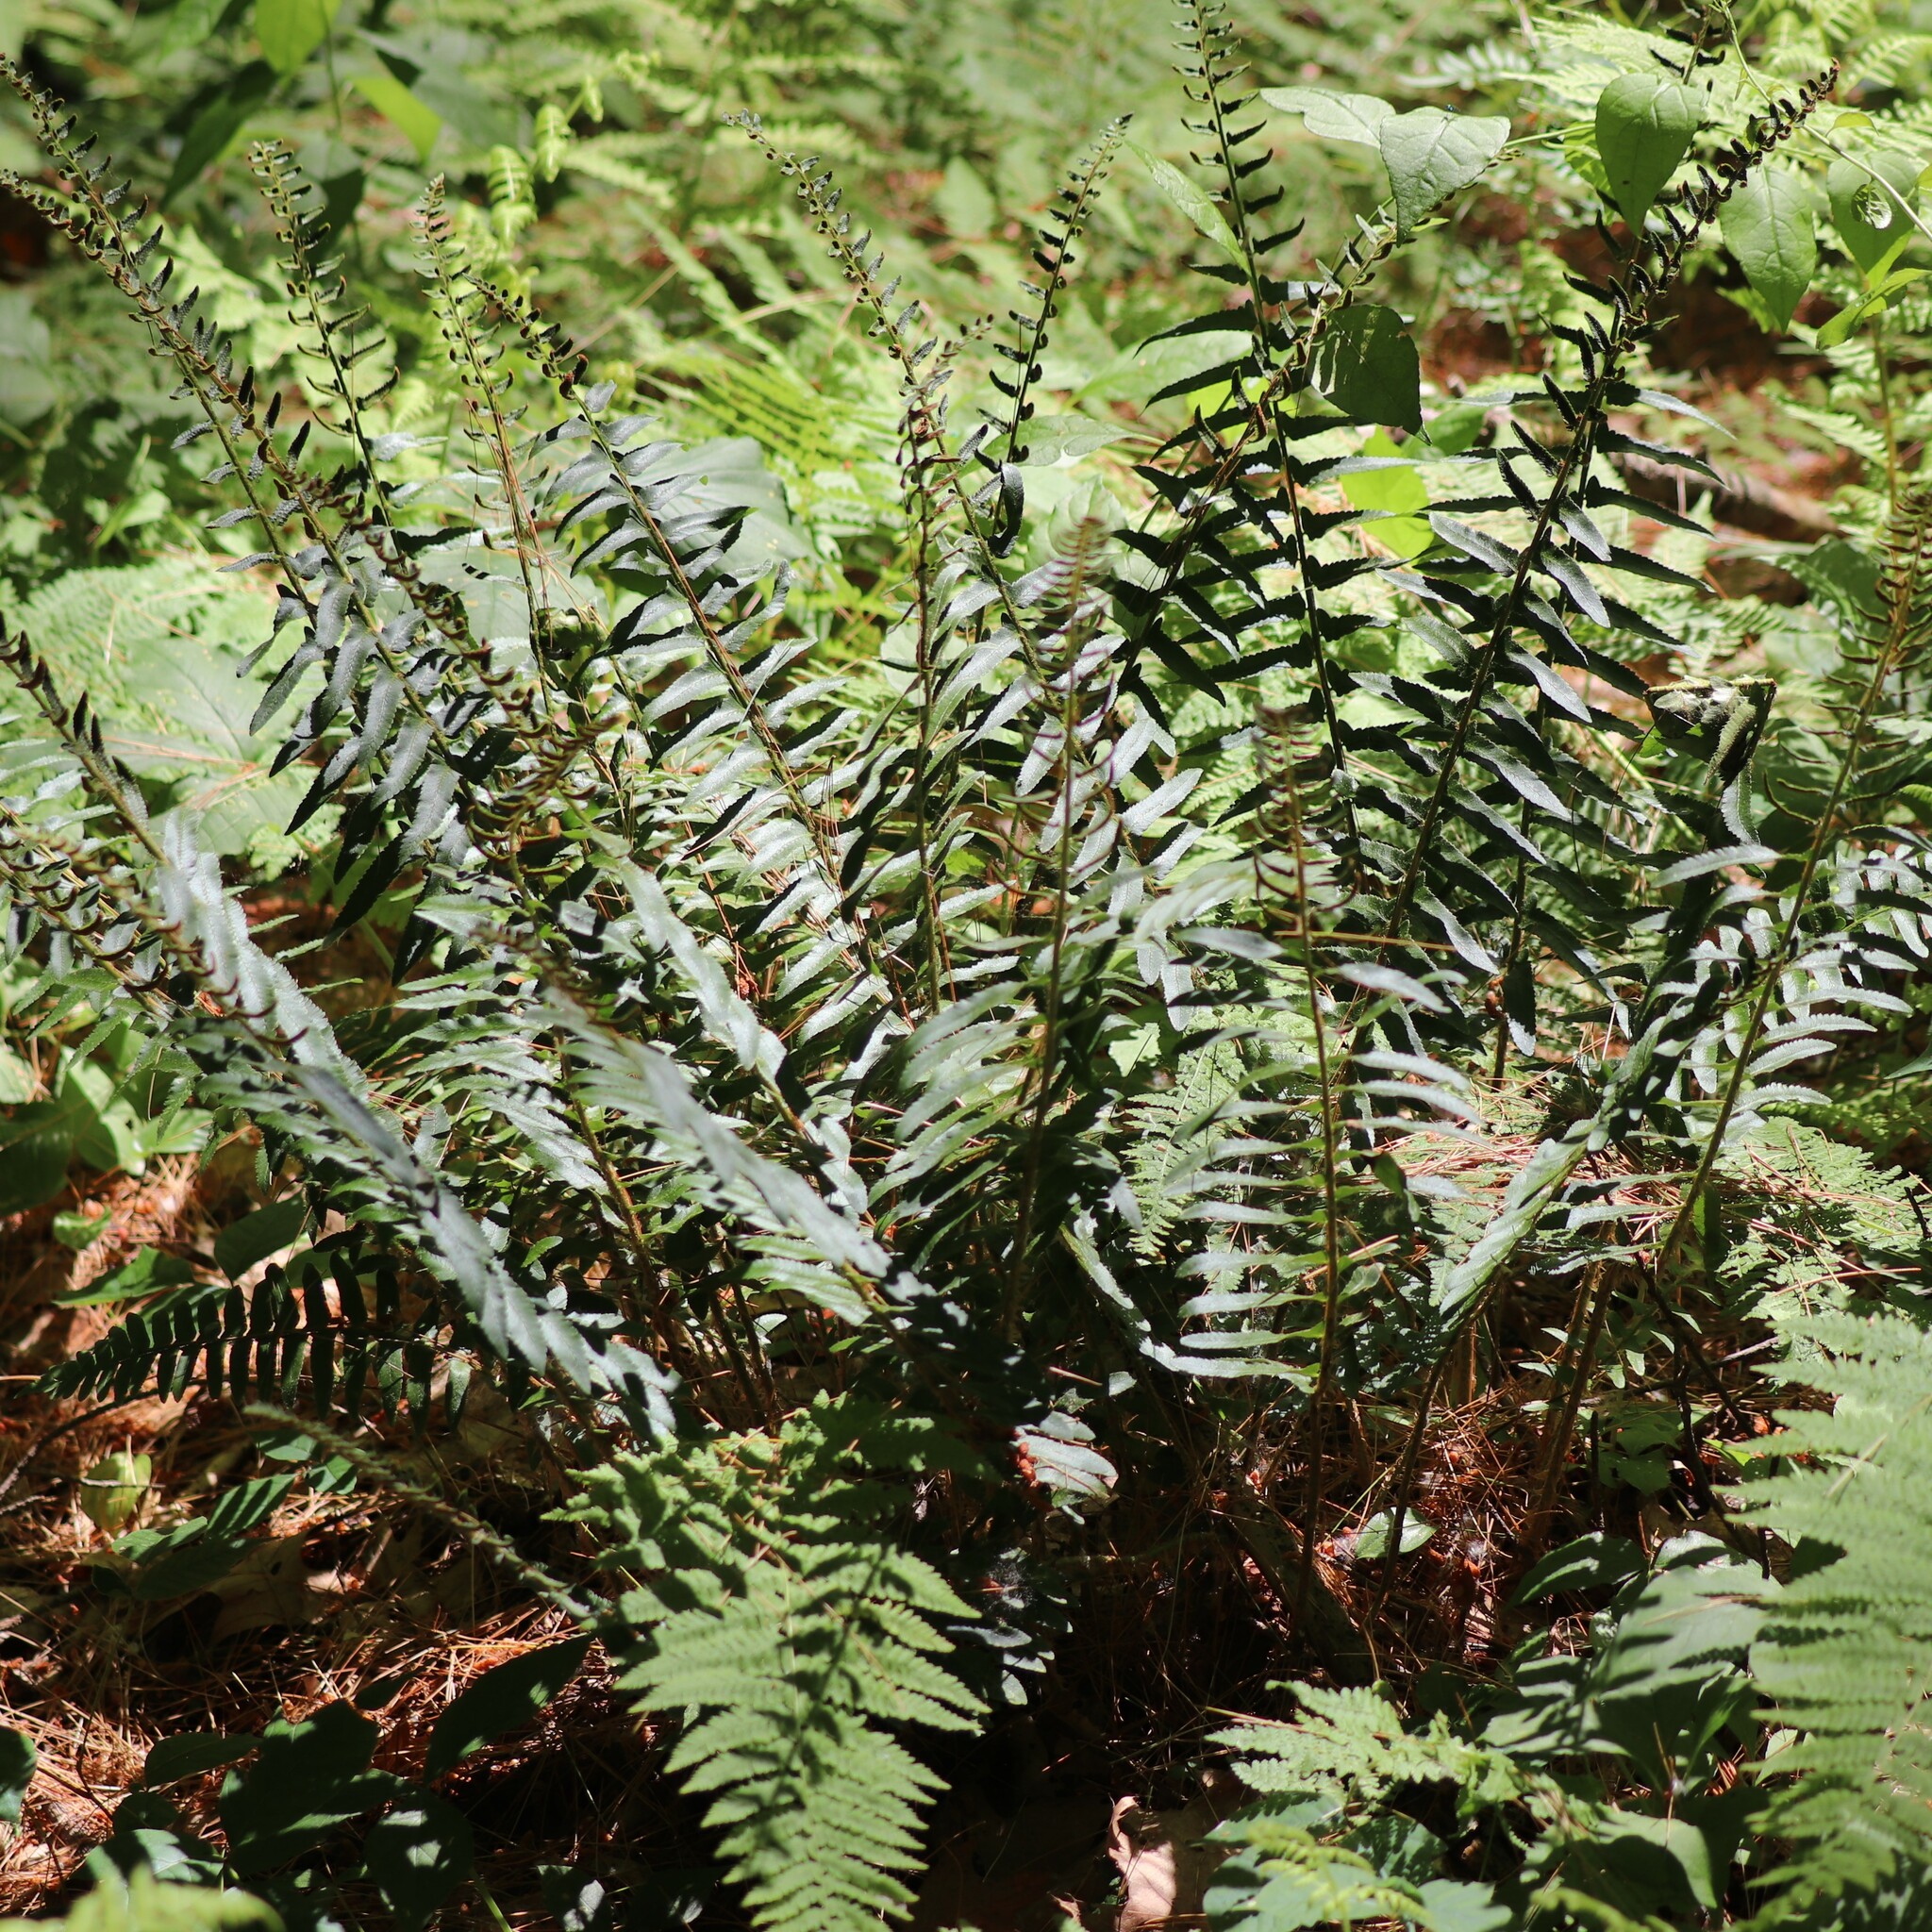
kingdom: Plantae
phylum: Tracheophyta
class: Polypodiopsida
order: Polypodiales
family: Dryopteridaceae
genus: Polystichum
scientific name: Polystichum acrostichoides
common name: Christmas fern
